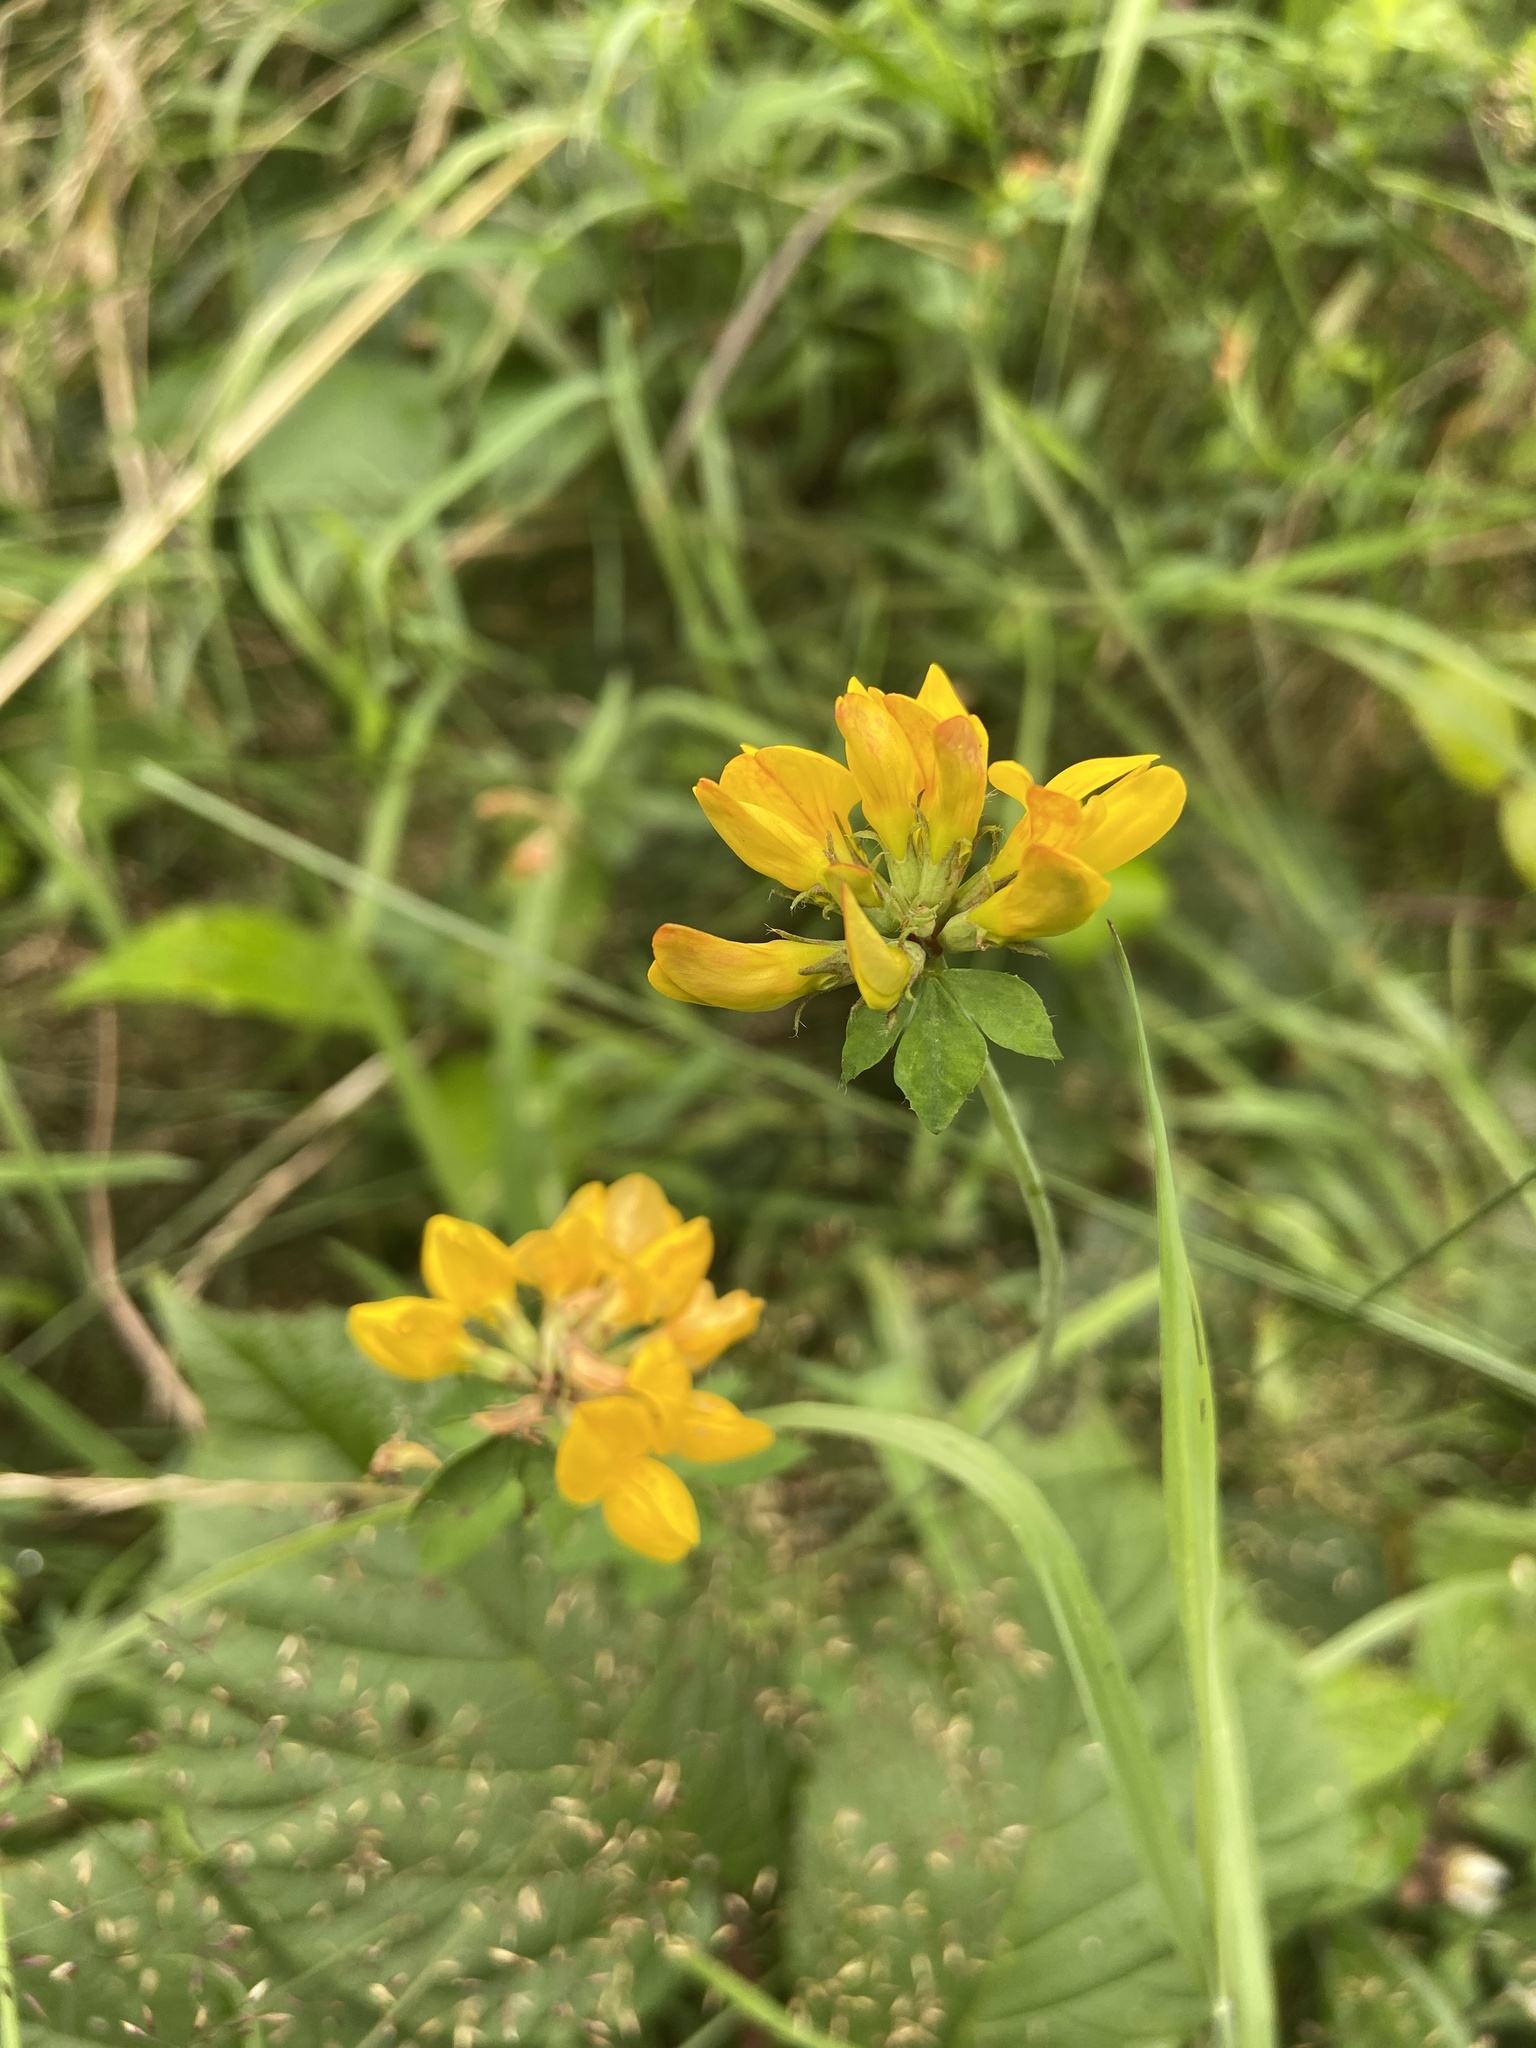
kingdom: Plantae
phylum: Tracheophyta
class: Magnoliopsida
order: Fabales
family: Fabaceae
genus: Lotus
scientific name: Lotus pedunculatus
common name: Greater birdsfoot-trefoil
